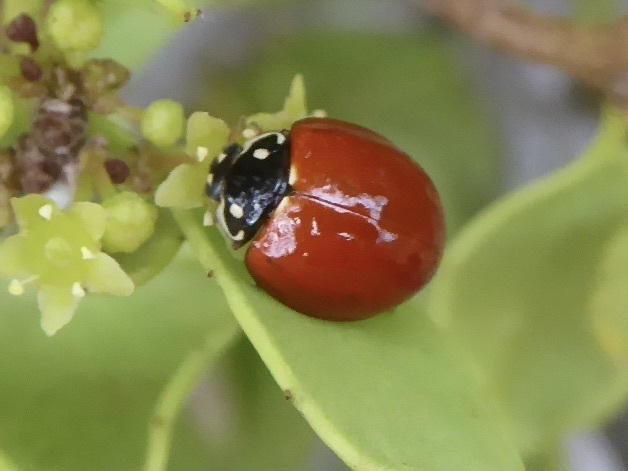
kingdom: Animalia
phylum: Arthropoda
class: Insecta
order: Coleoptera
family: Coccinellidae
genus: Cycloneda
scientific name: Cycloneda sanguinea
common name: Ladybird beetle
